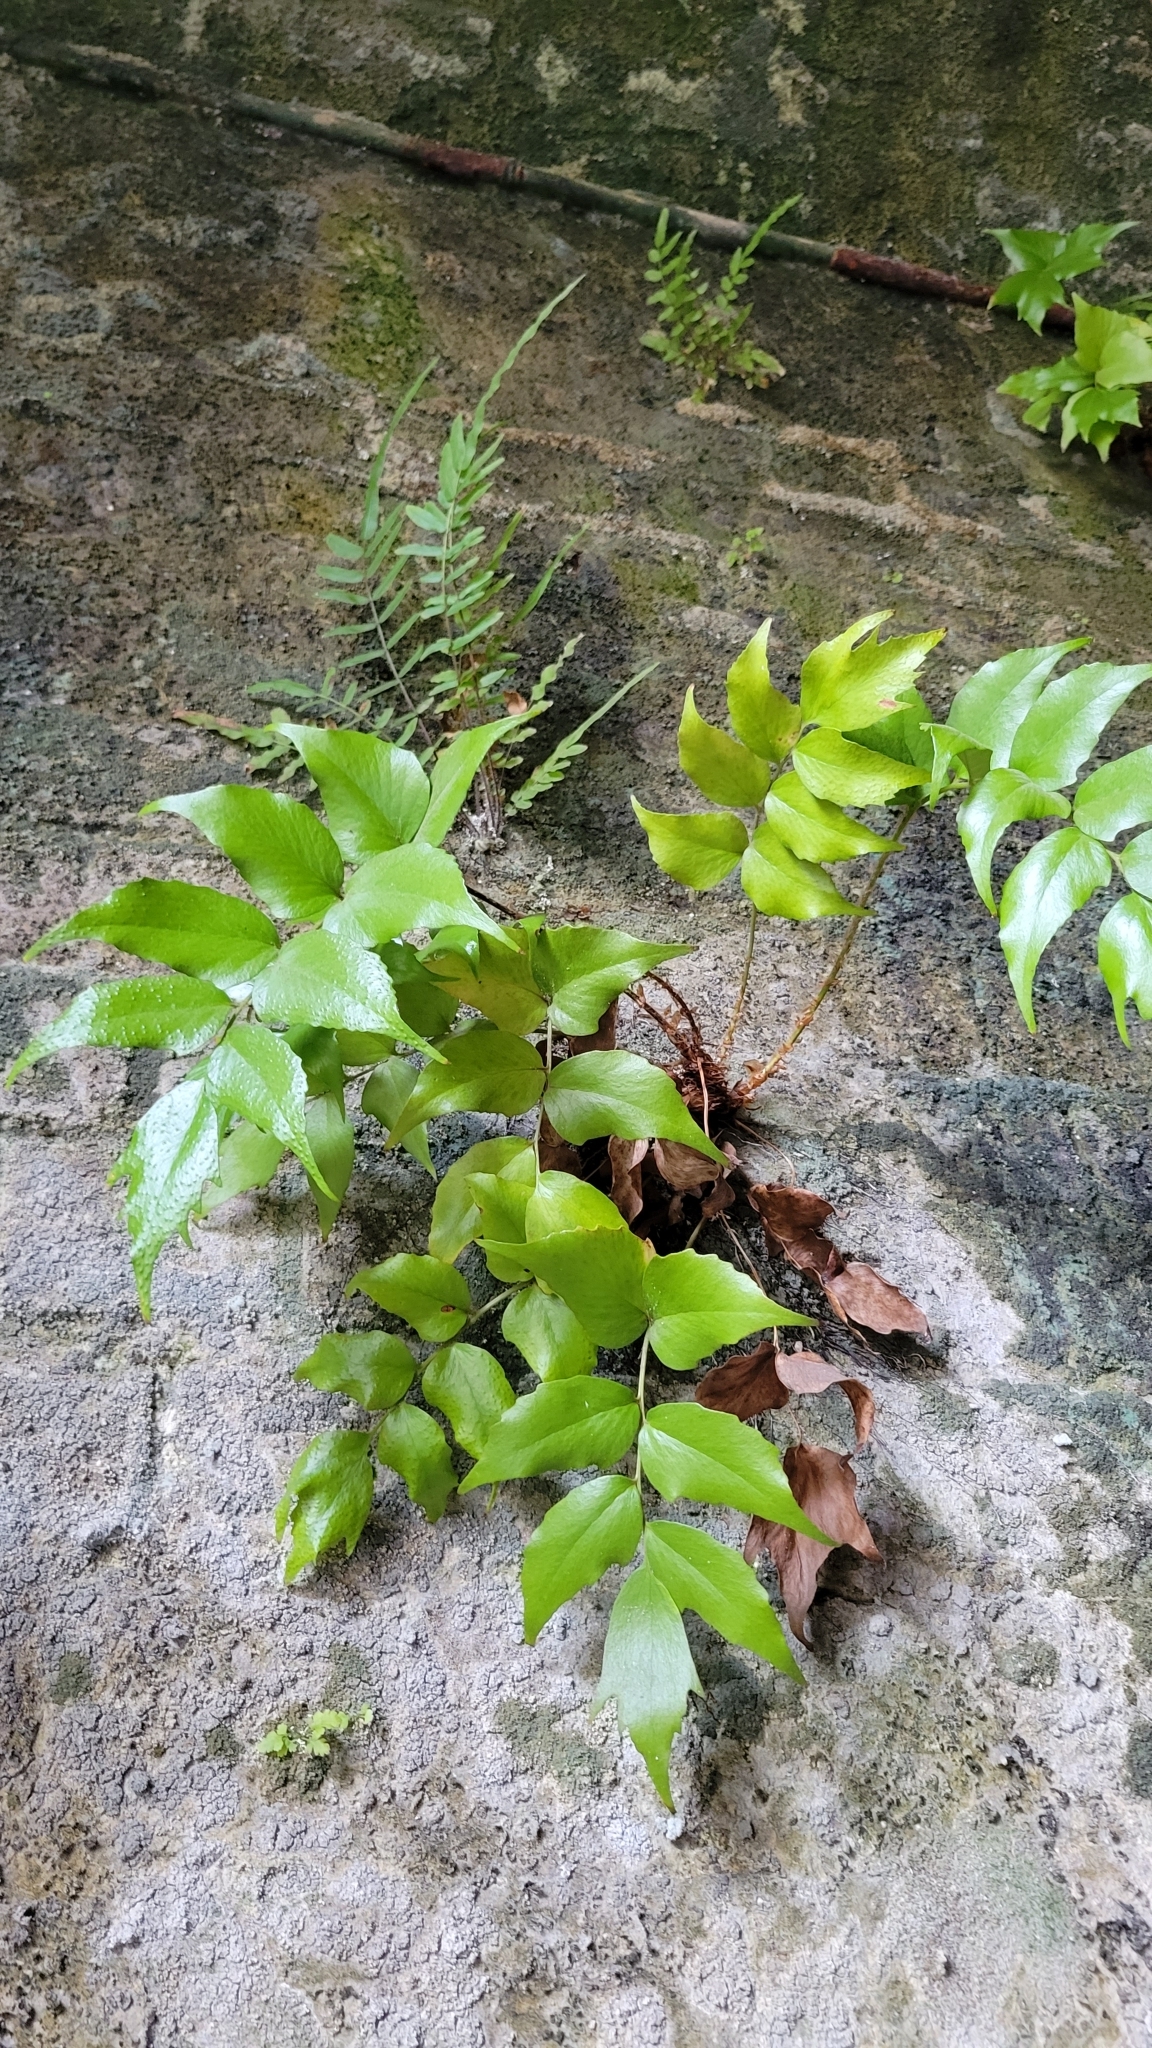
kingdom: Plantae
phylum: Tracheophyta
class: Polypodiopsida
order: Polypodiales
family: Dryopteridaceae
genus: Cyrtomium
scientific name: Cyrtomium falcatum
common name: House holly-fern
